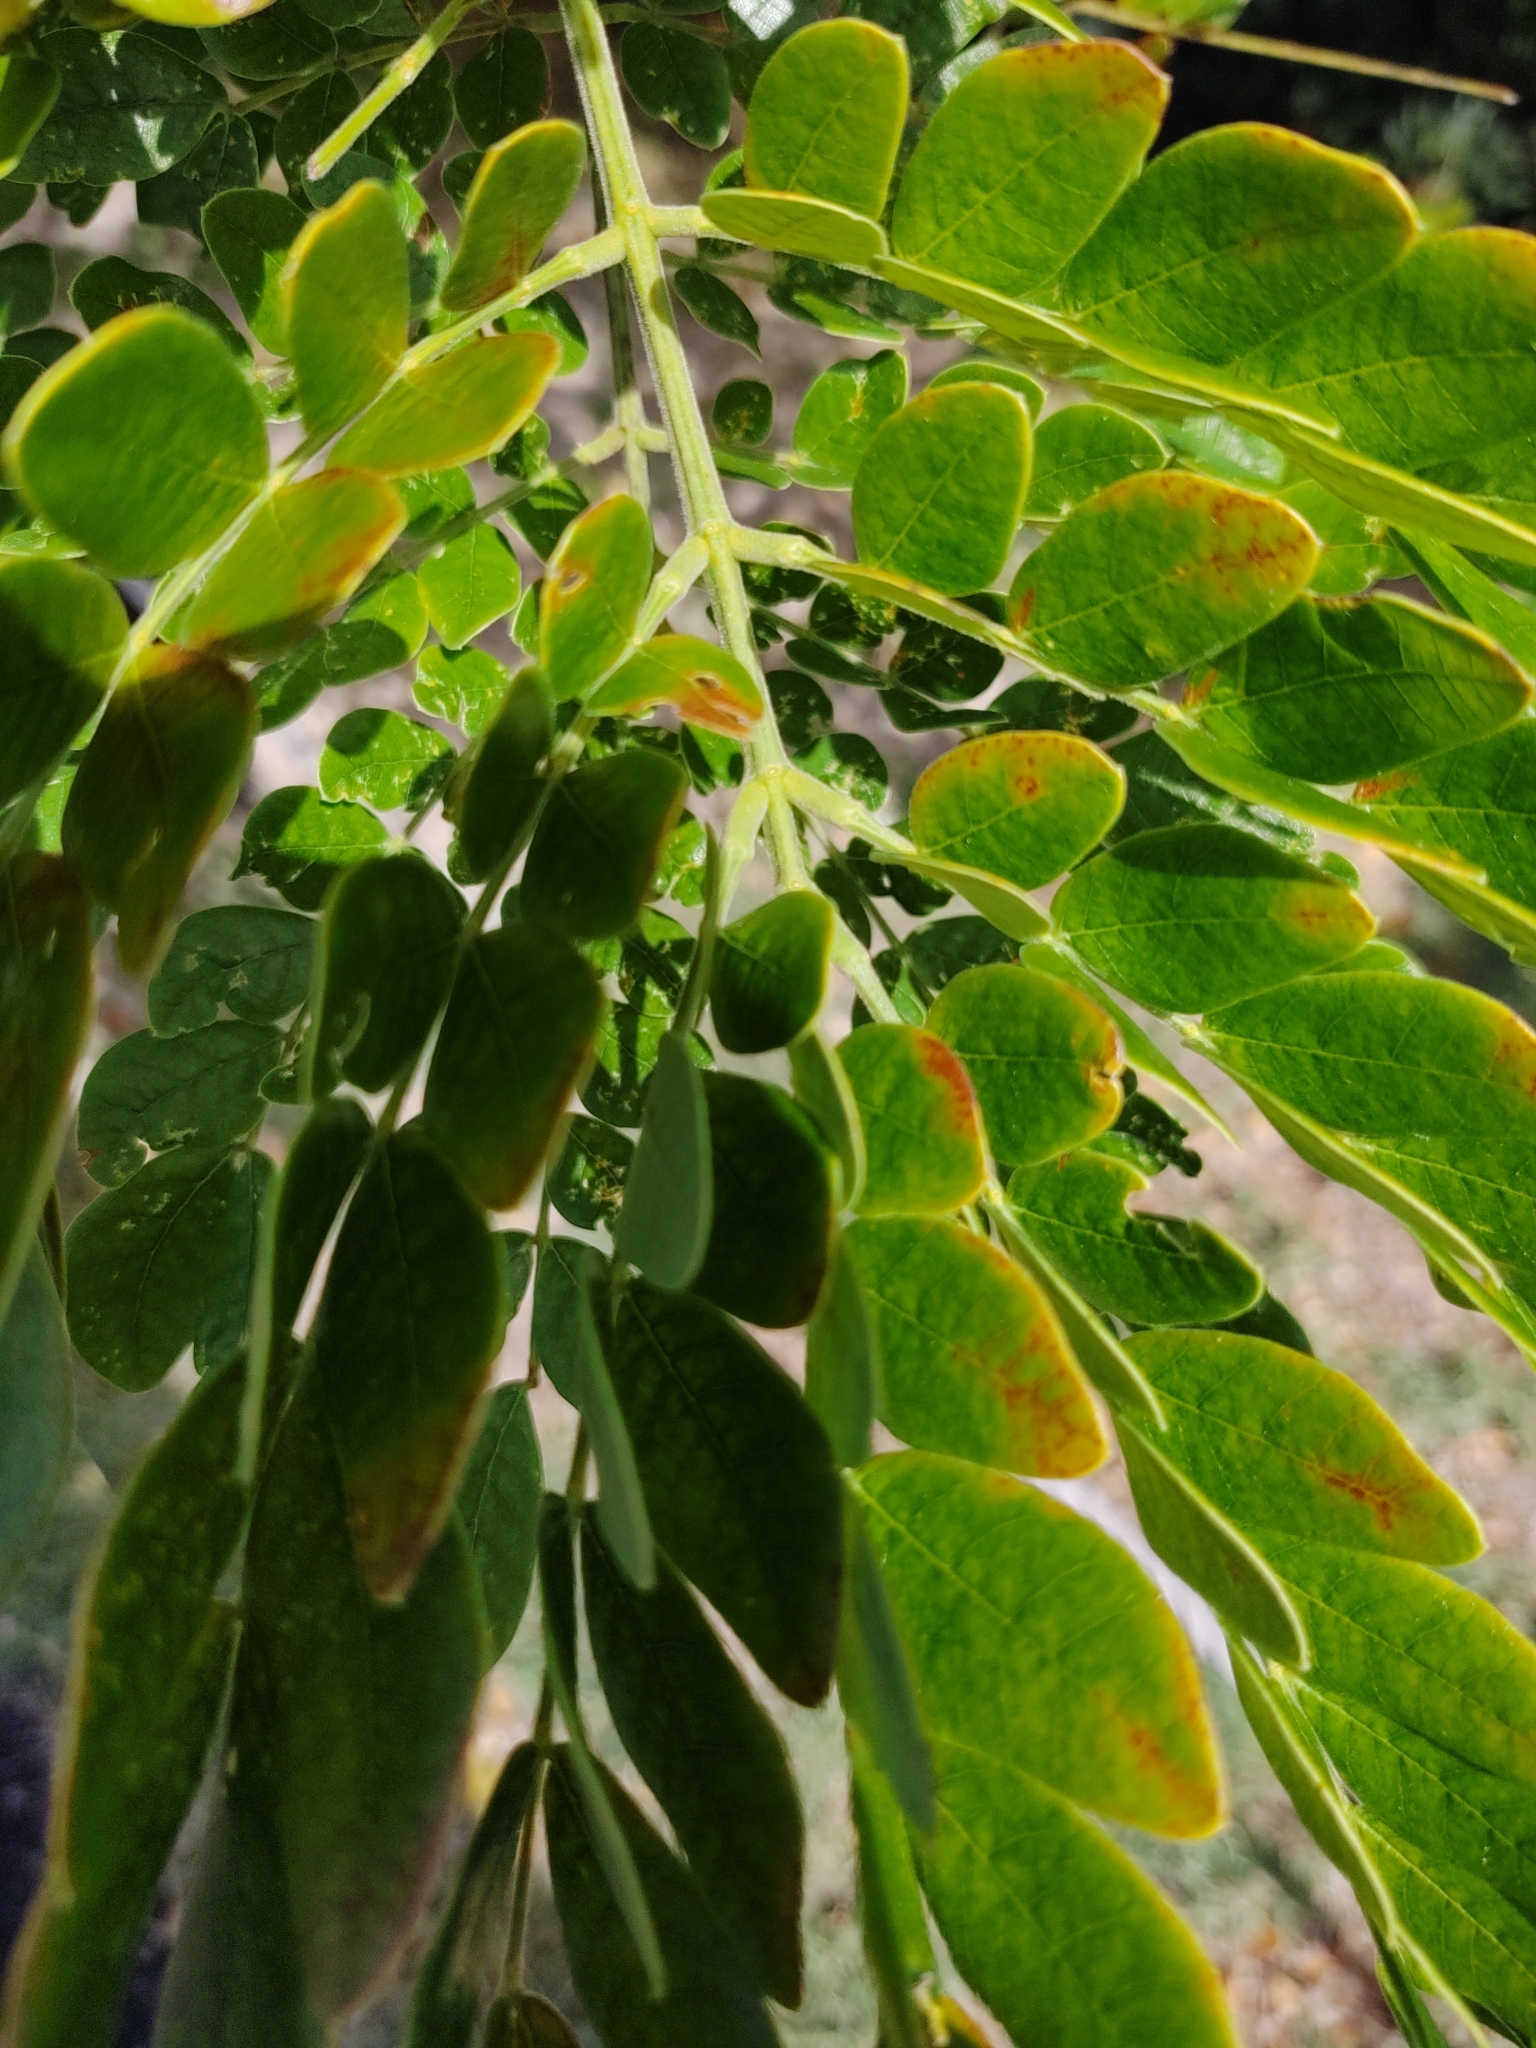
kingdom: Plantae
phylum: Tracheophyta
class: Magnoliopsida
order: Fabales
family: Fabaceae
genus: Samanea
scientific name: Samanea saman
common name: Raintree
